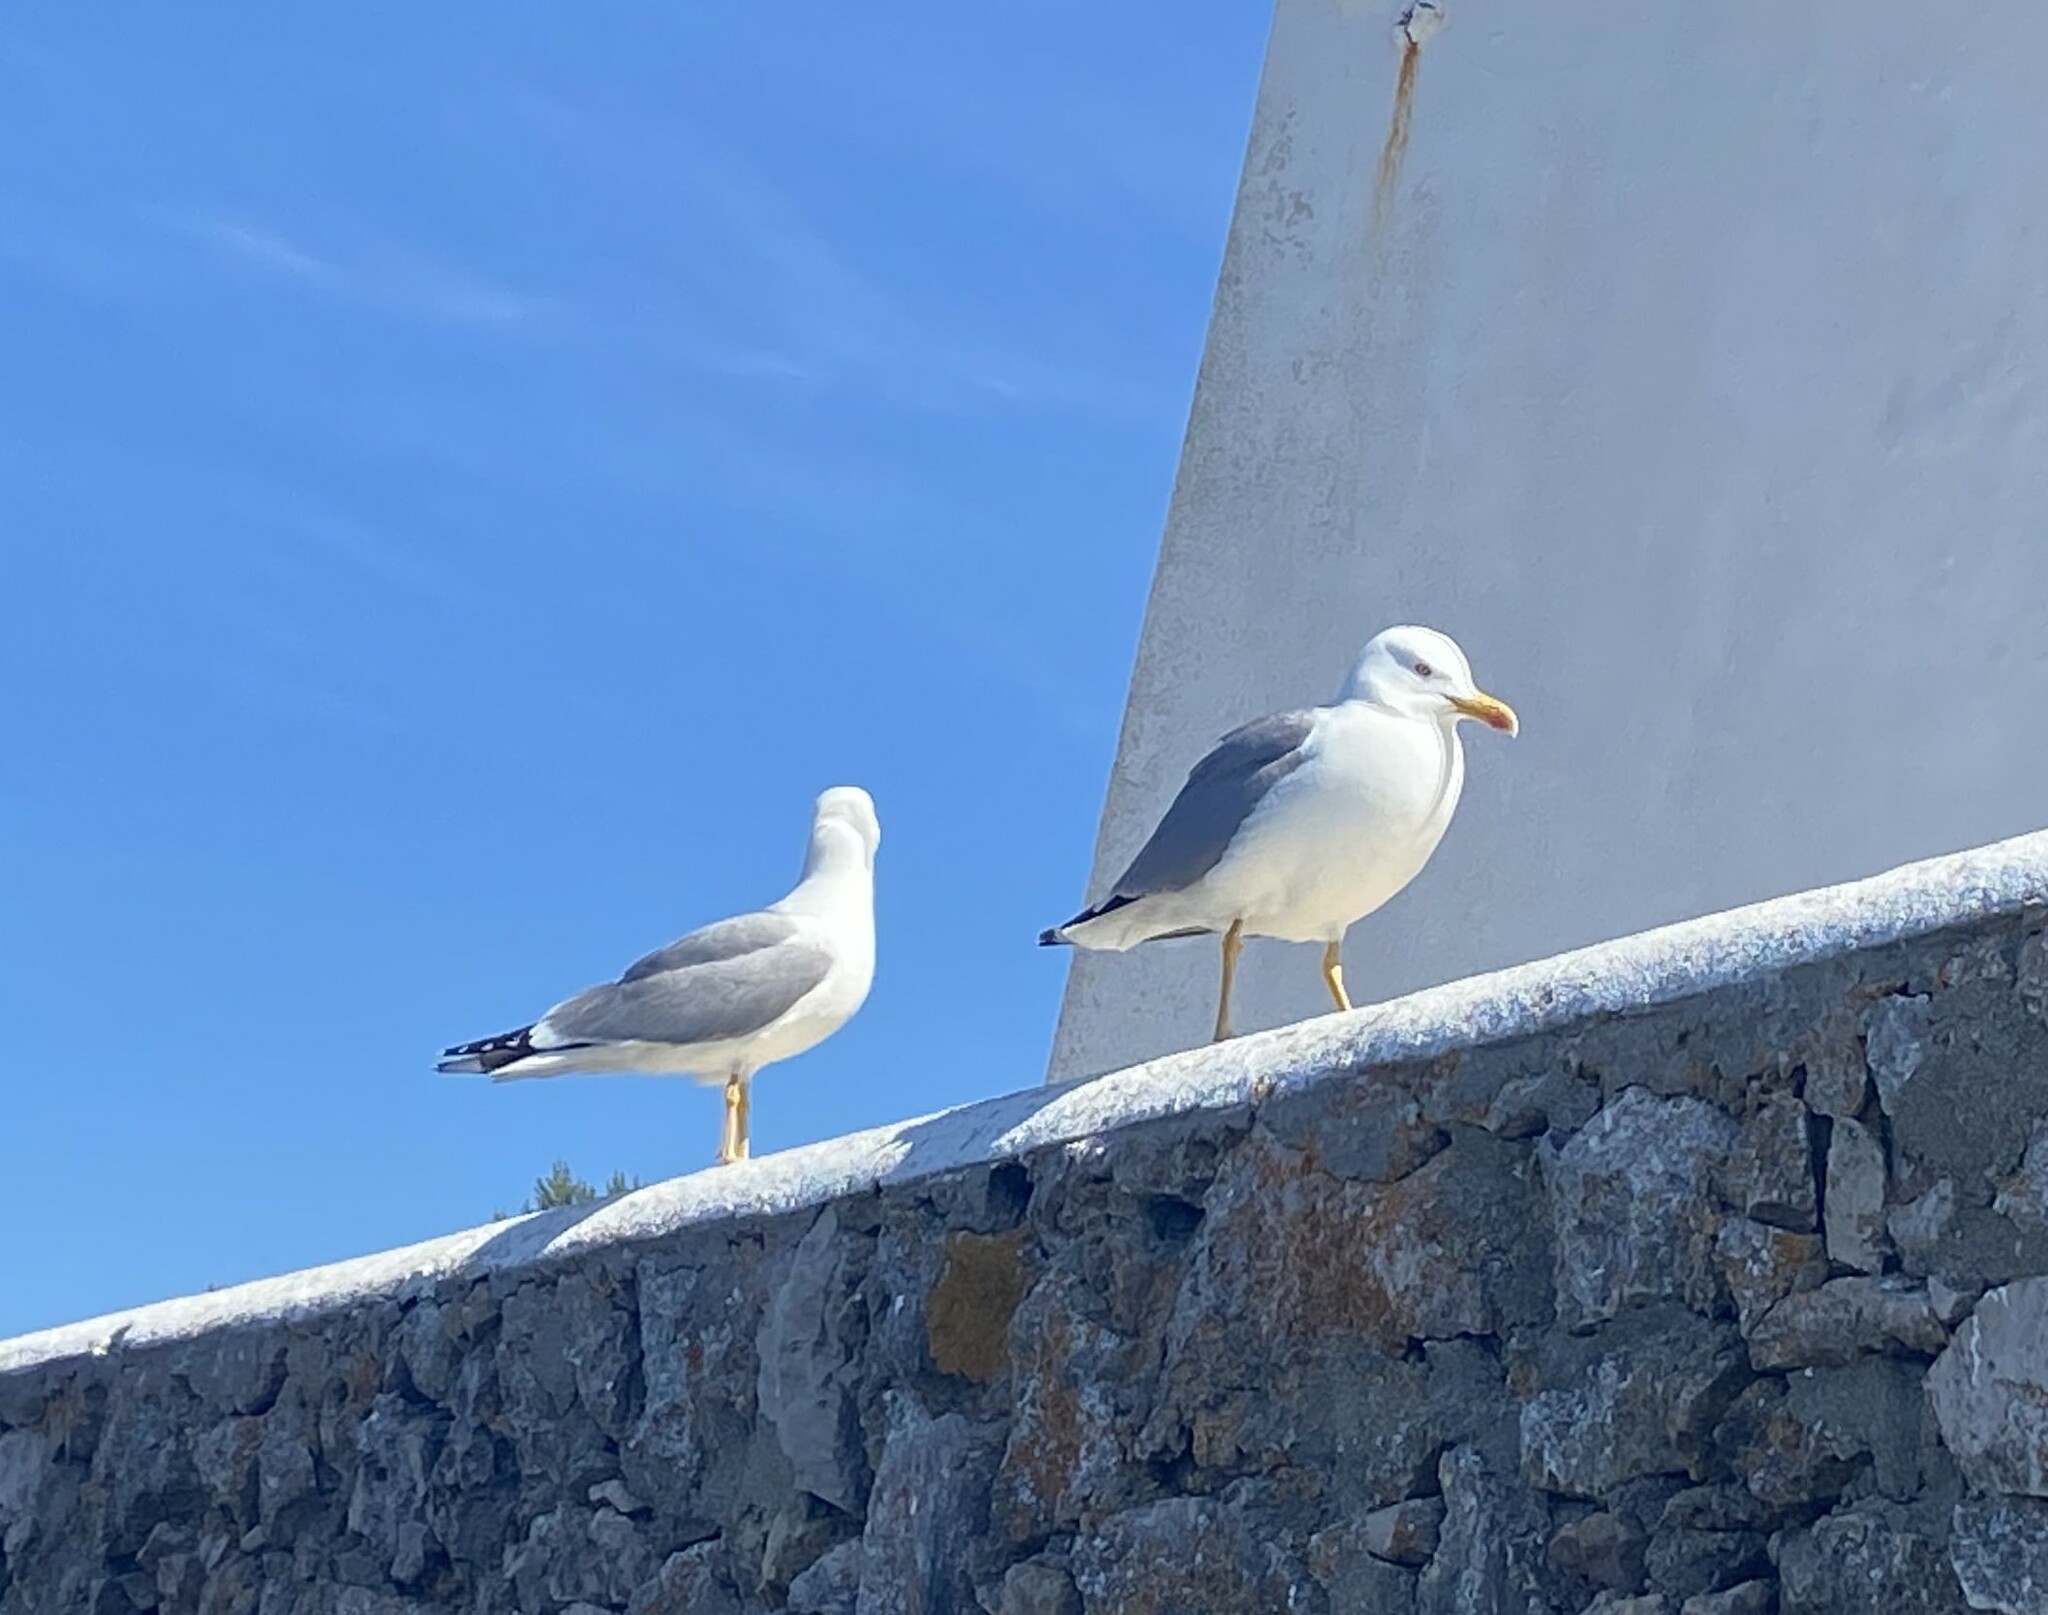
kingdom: Animalia
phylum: Chordata
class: Aves
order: Charadriiformes
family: Laridae
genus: Larus
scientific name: Larus michahellis
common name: Yellow-legged gull
